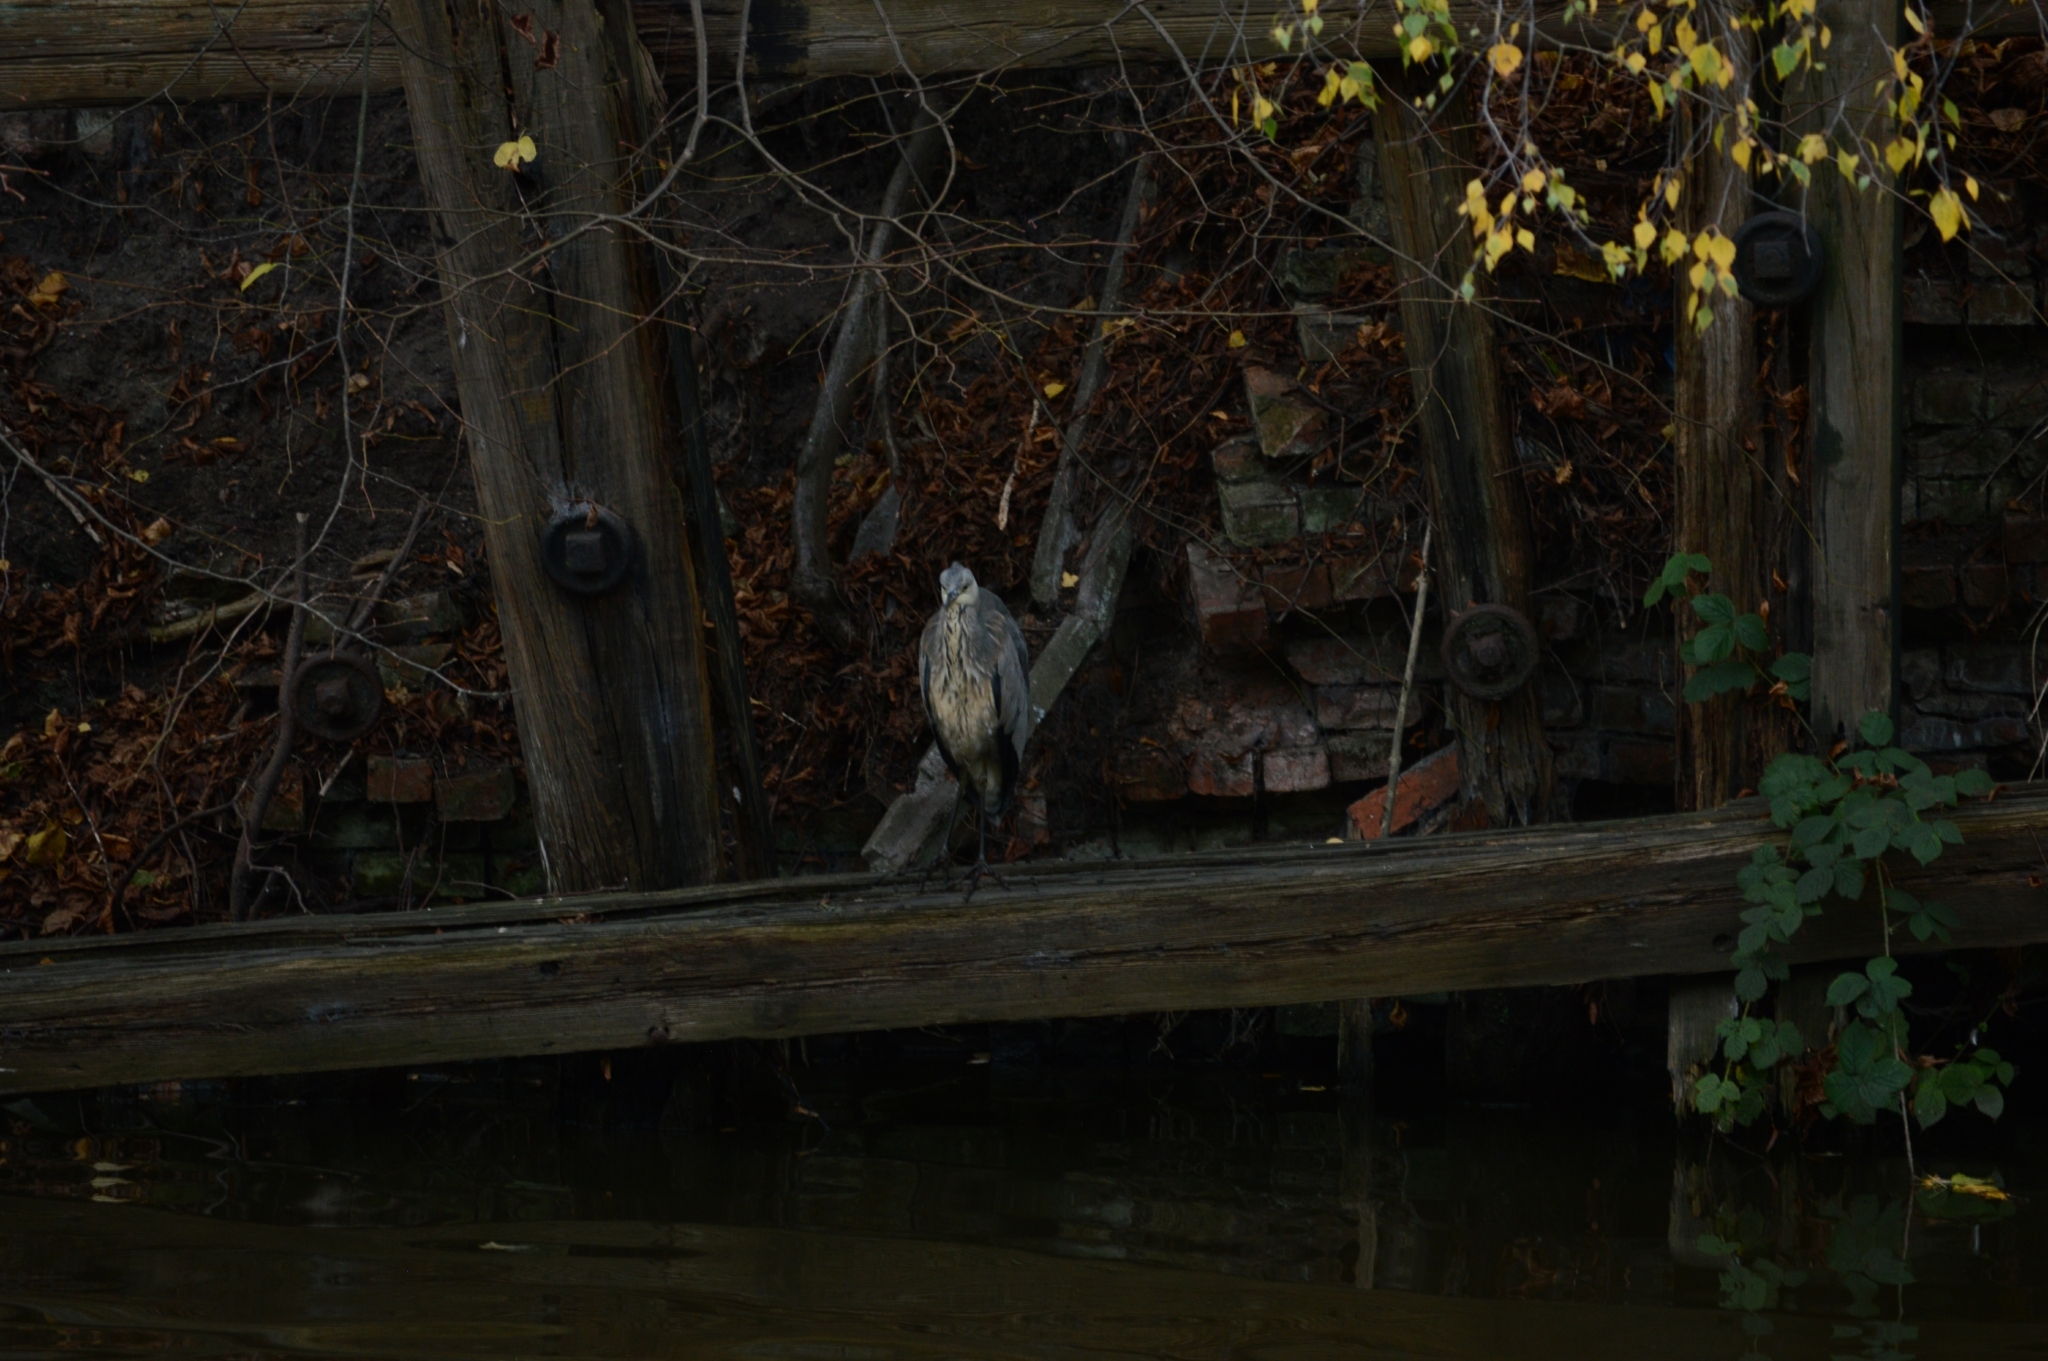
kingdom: Animalia
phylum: Chordata
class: Aves
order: Pelecaniformes
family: Ardeidae
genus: Ardea
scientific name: Ardea cinerea
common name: Grey heron
